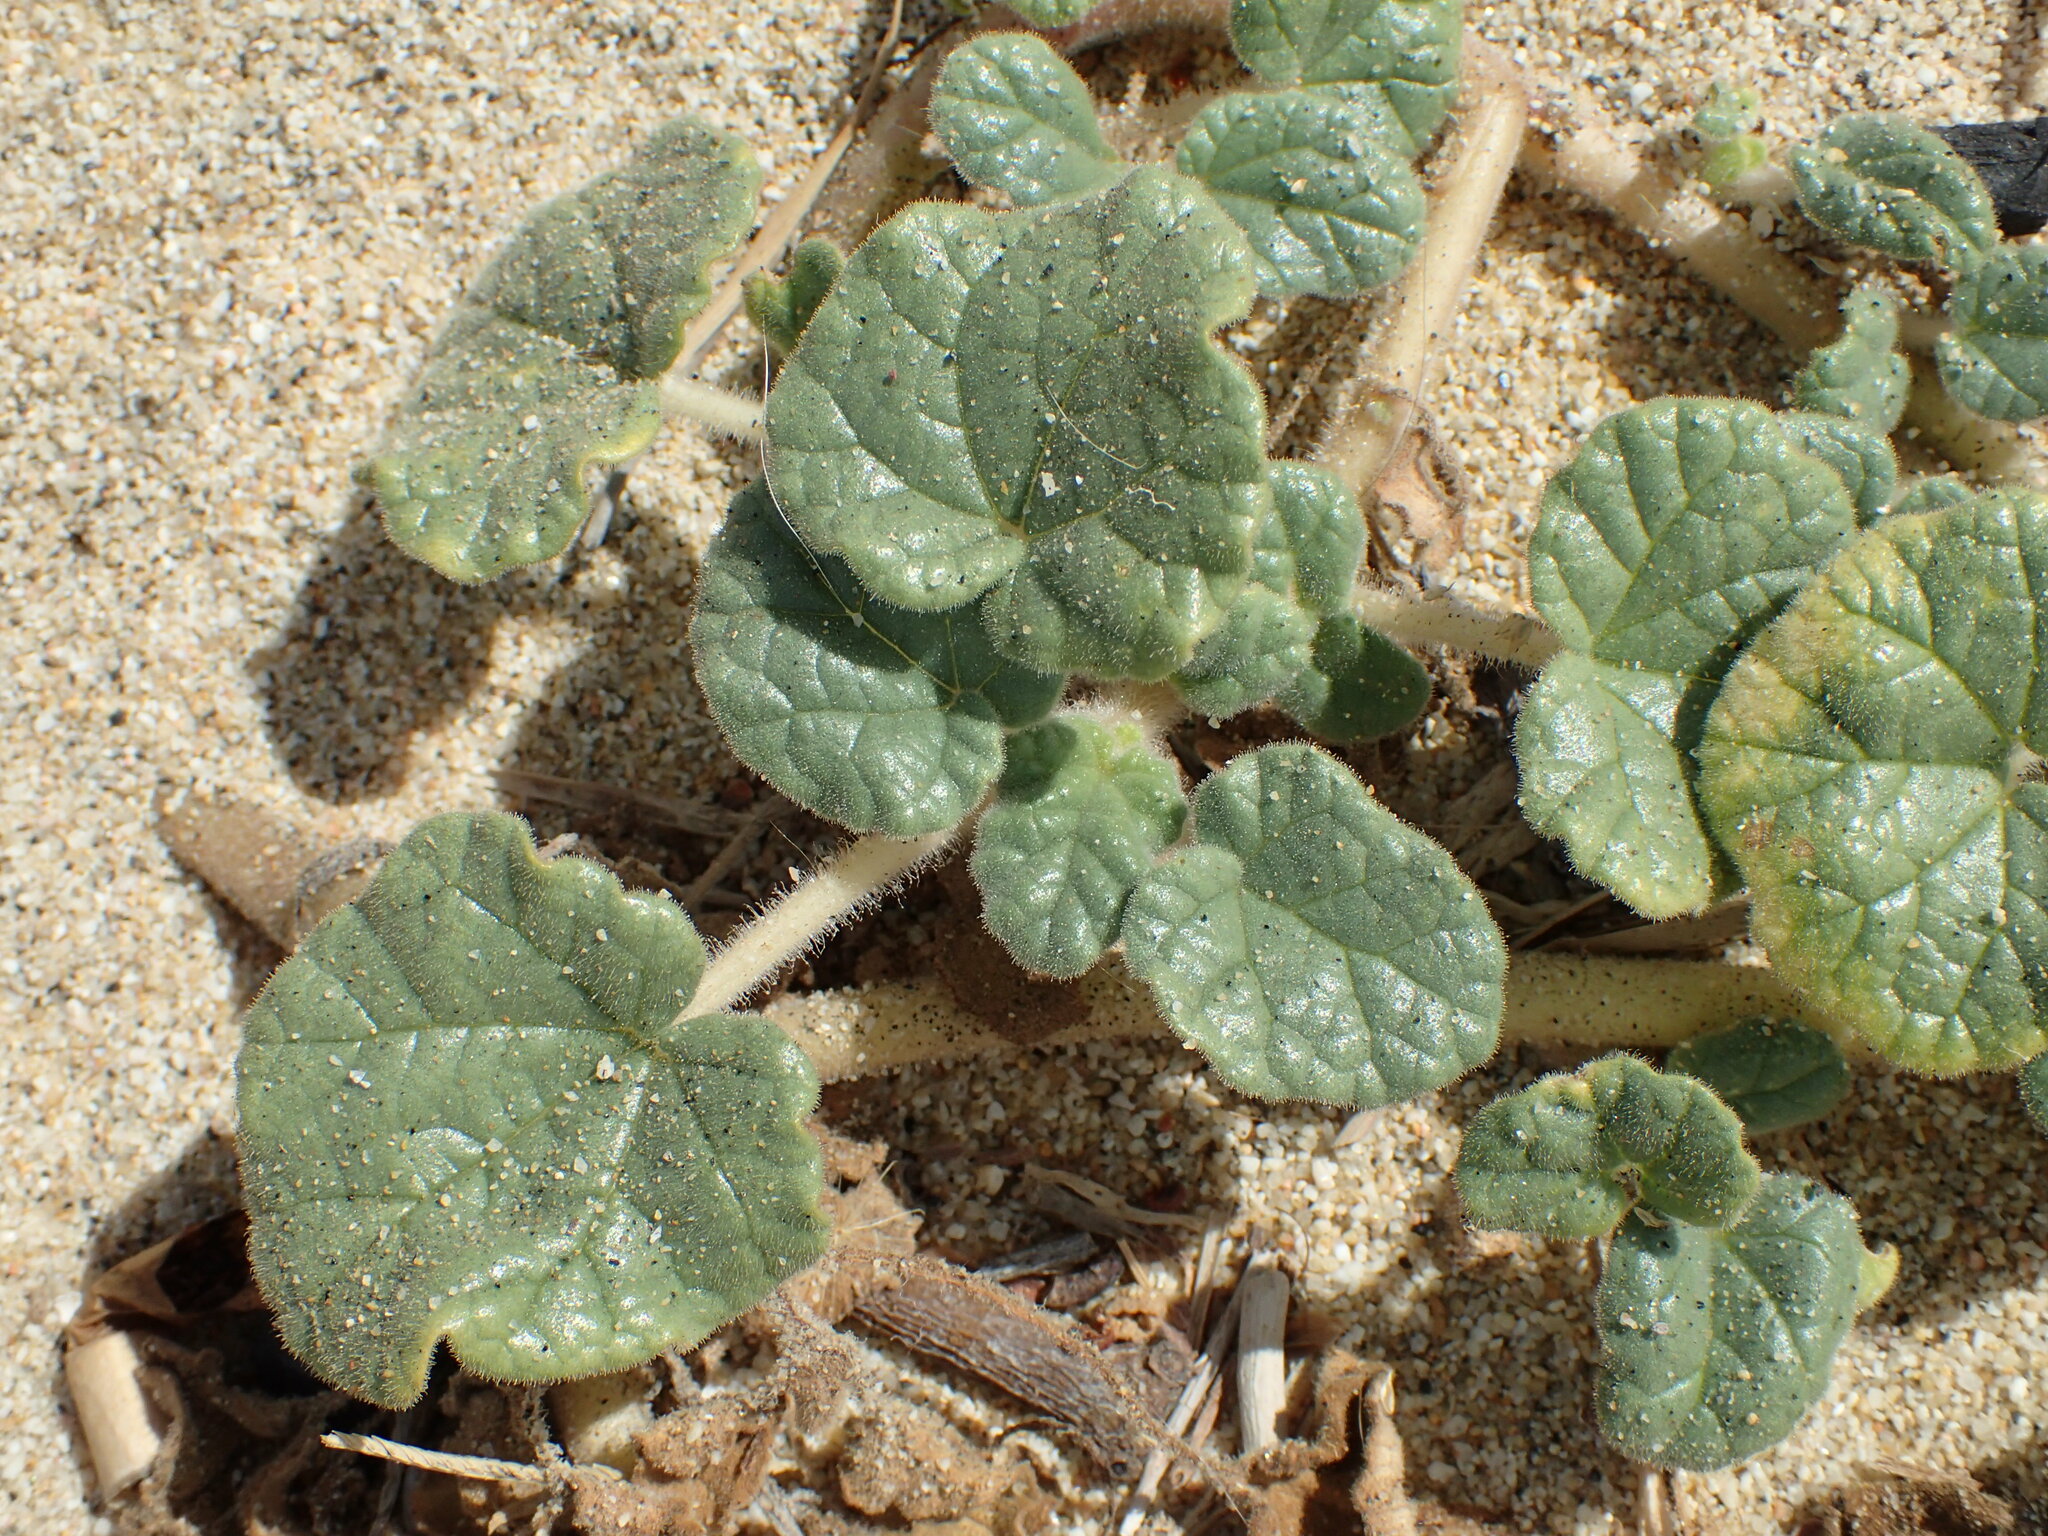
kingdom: Plantae
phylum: Tracheophyta
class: Magnoliopsida
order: Lamiales
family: Martyniaceae
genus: Proboscidea
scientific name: Proboscidea althaeifolia
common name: Desert unicorn-plant
